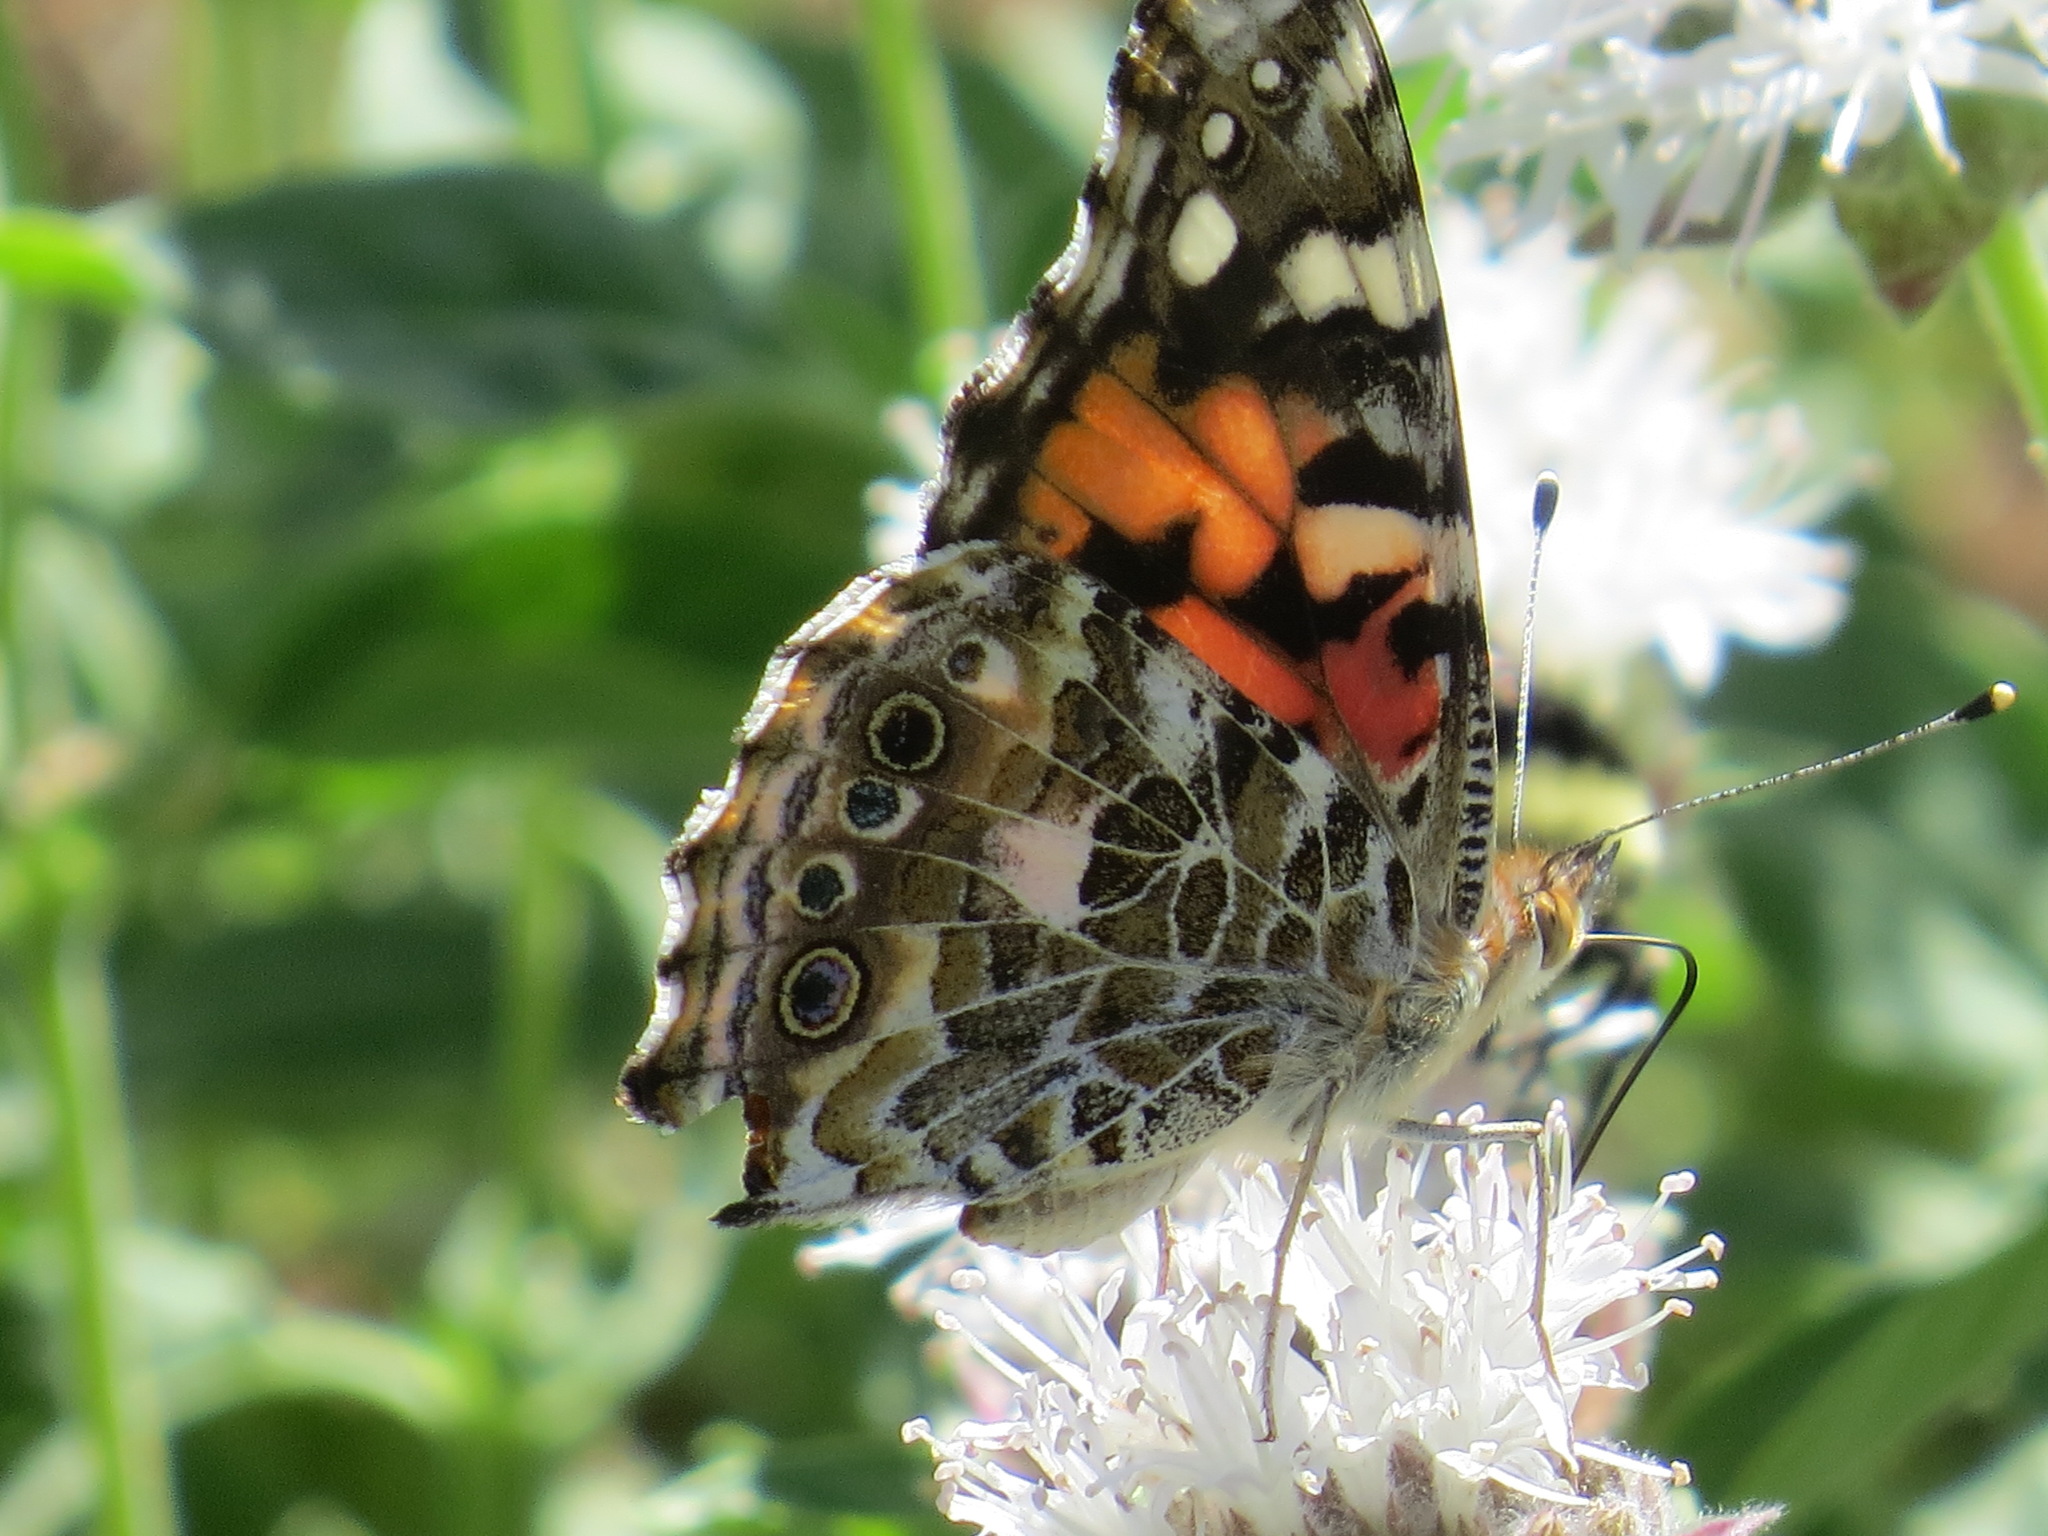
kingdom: Animalia
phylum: Arthropoda
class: Insecta
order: Lepidoptera
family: Nymphalidae
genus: Vanessa
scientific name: Vanessa cardui
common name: Painted lady
